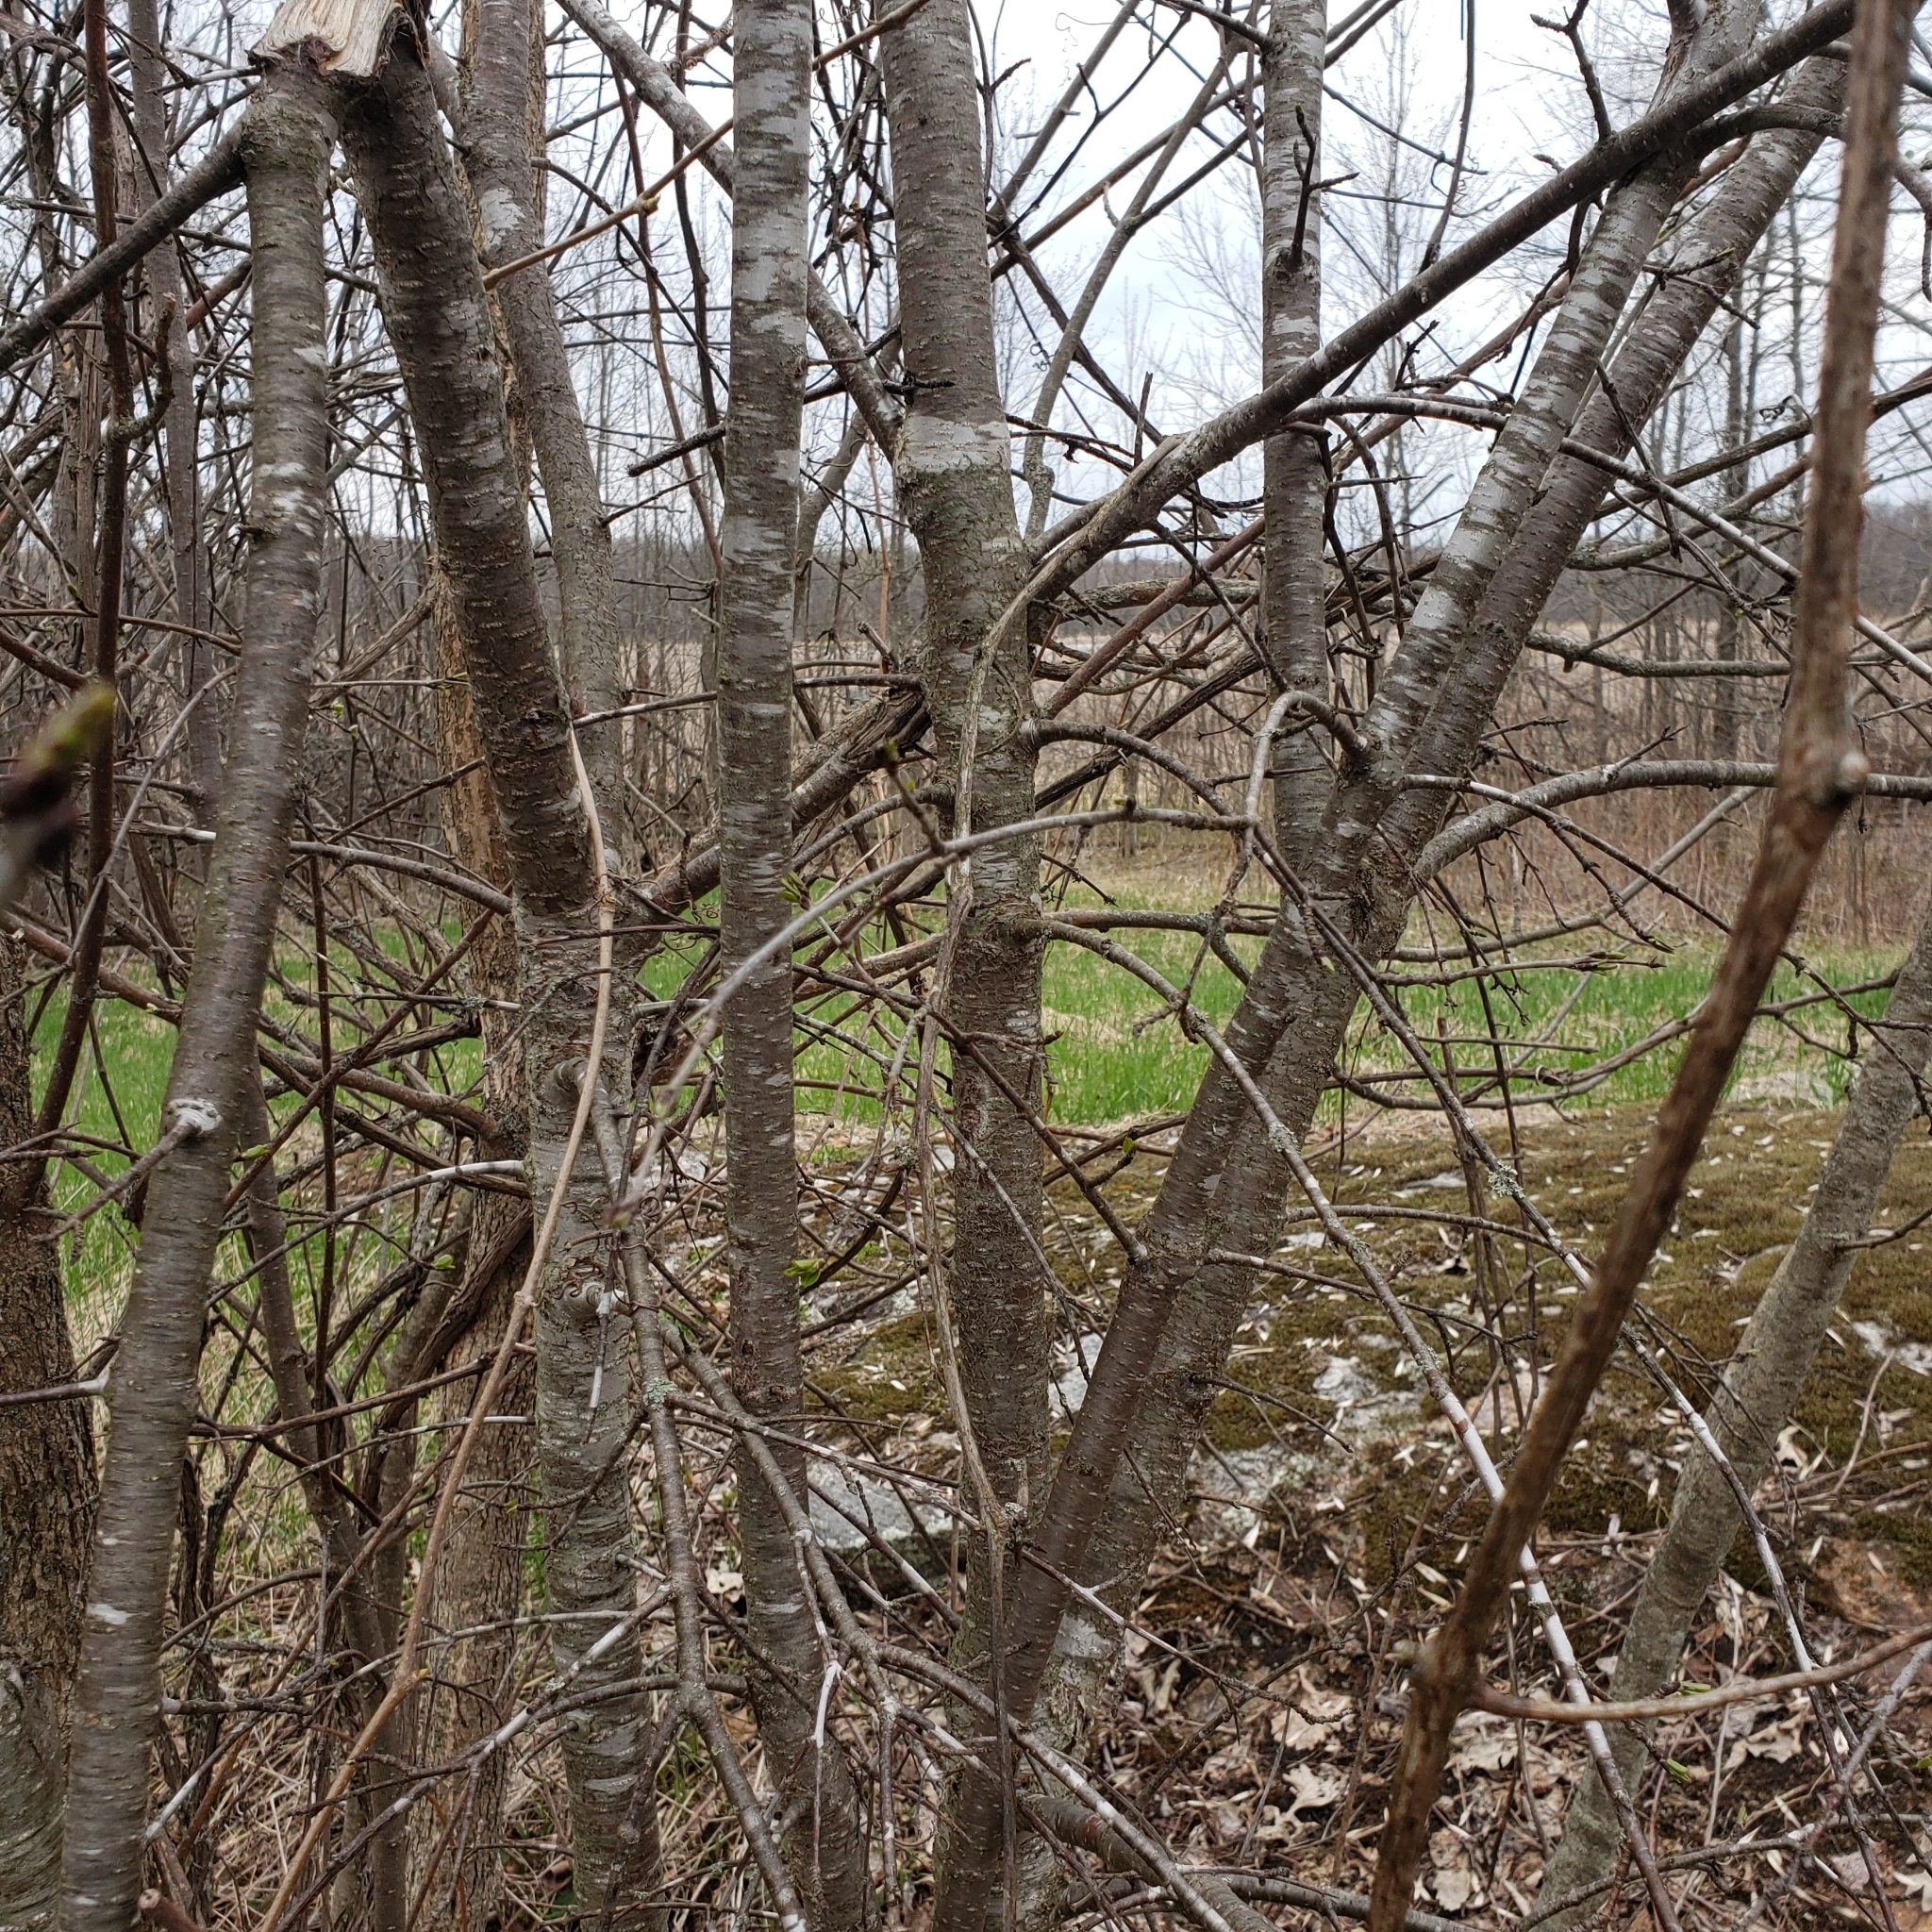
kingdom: Plantae
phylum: Tracheophyta
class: Magnoliopsida
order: Rosales
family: Rhamnaceae
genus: Rhamnus
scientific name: Rhamnus cathartica
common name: Common buckthorn
